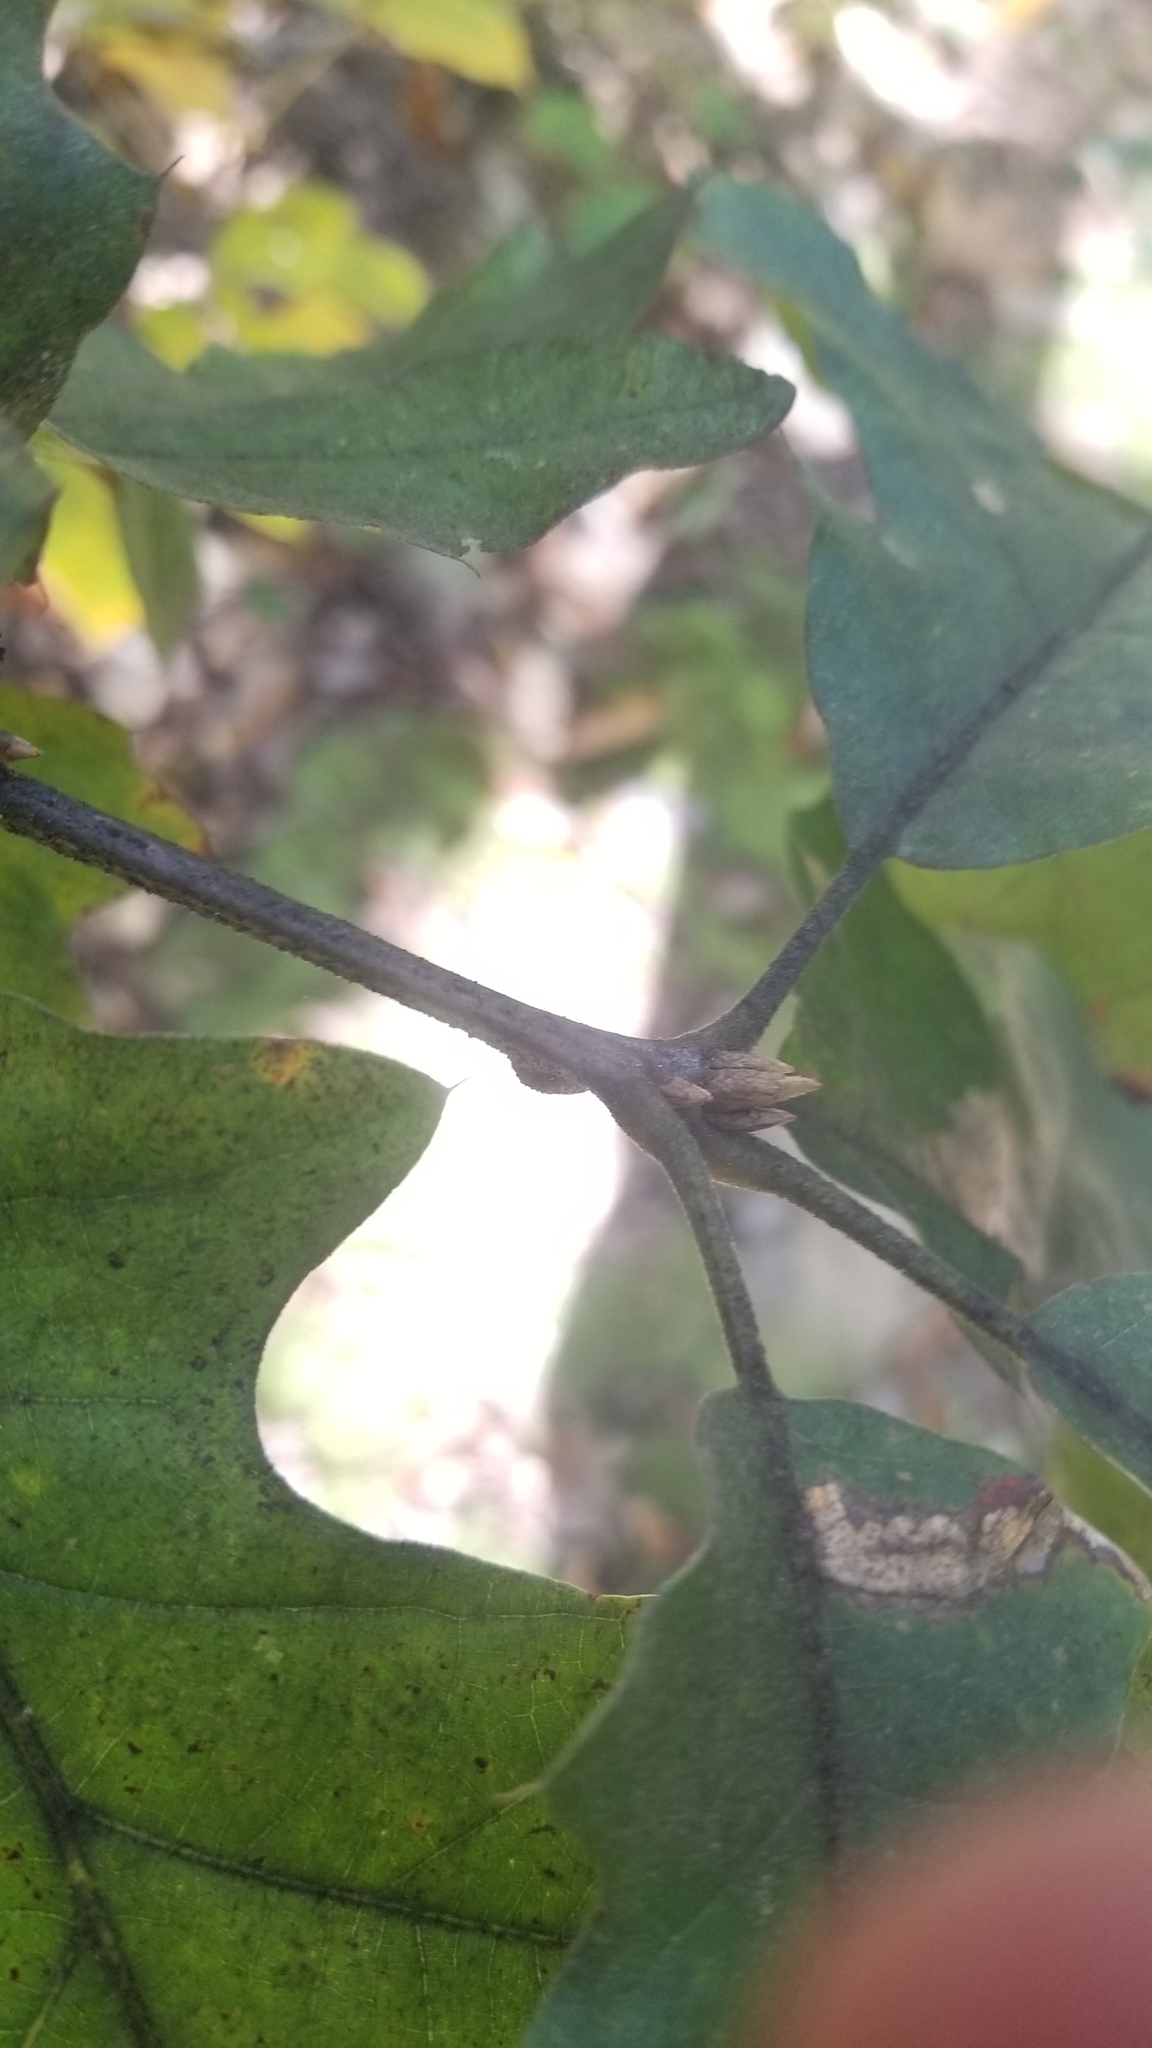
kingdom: Plantae
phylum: Tracheophyta
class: Magnoliopsida
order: Fagales
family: Fagaceae
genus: Quercus
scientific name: Quercus velutina
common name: Black oak
